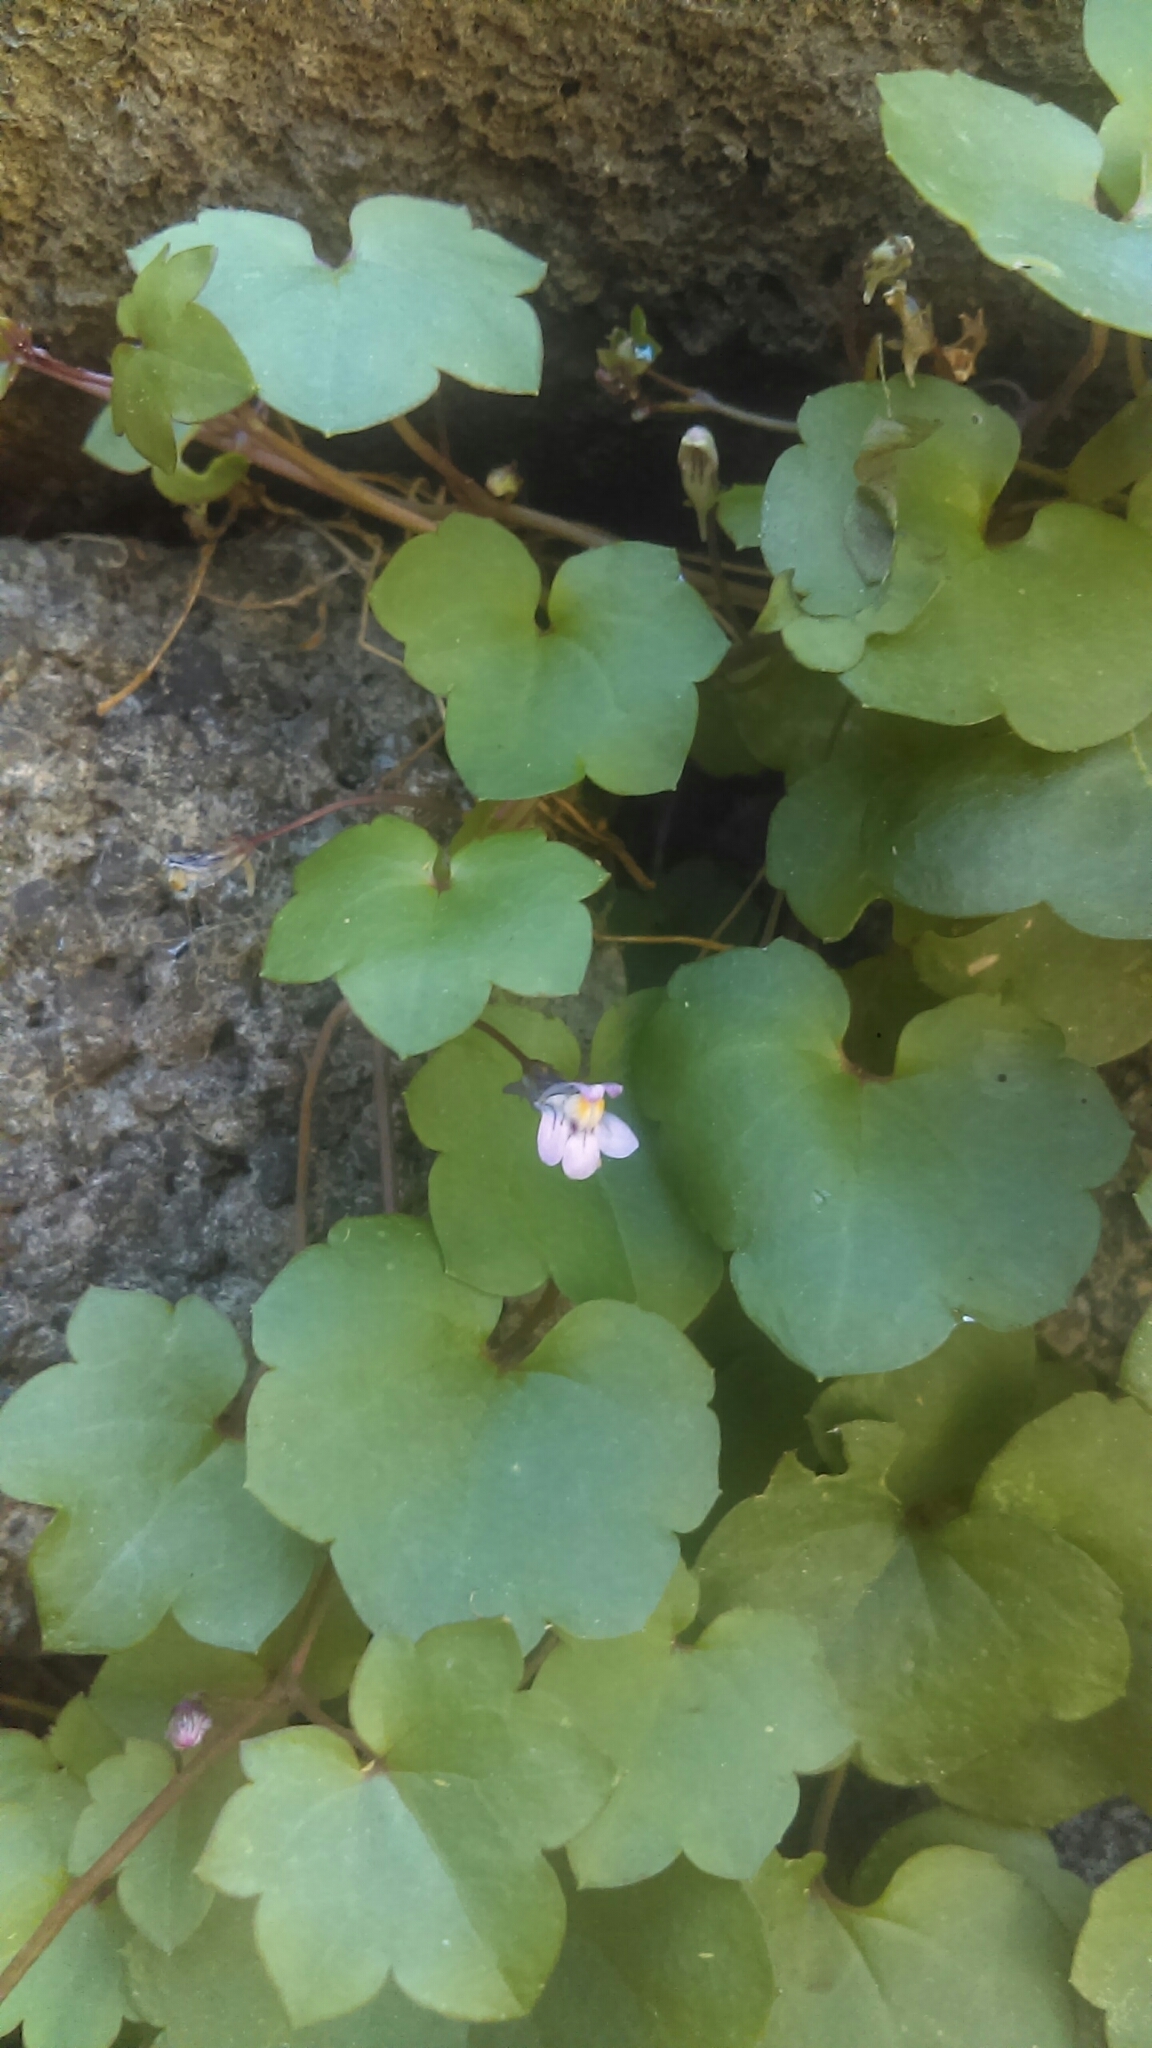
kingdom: Plantae
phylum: Tracheophyta
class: Magnoliopsida
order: Lamiales
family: Plantaginaceae
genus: Cymbalaria
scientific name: Cymbalaria muralis
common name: Ivy-leaved toadflax
